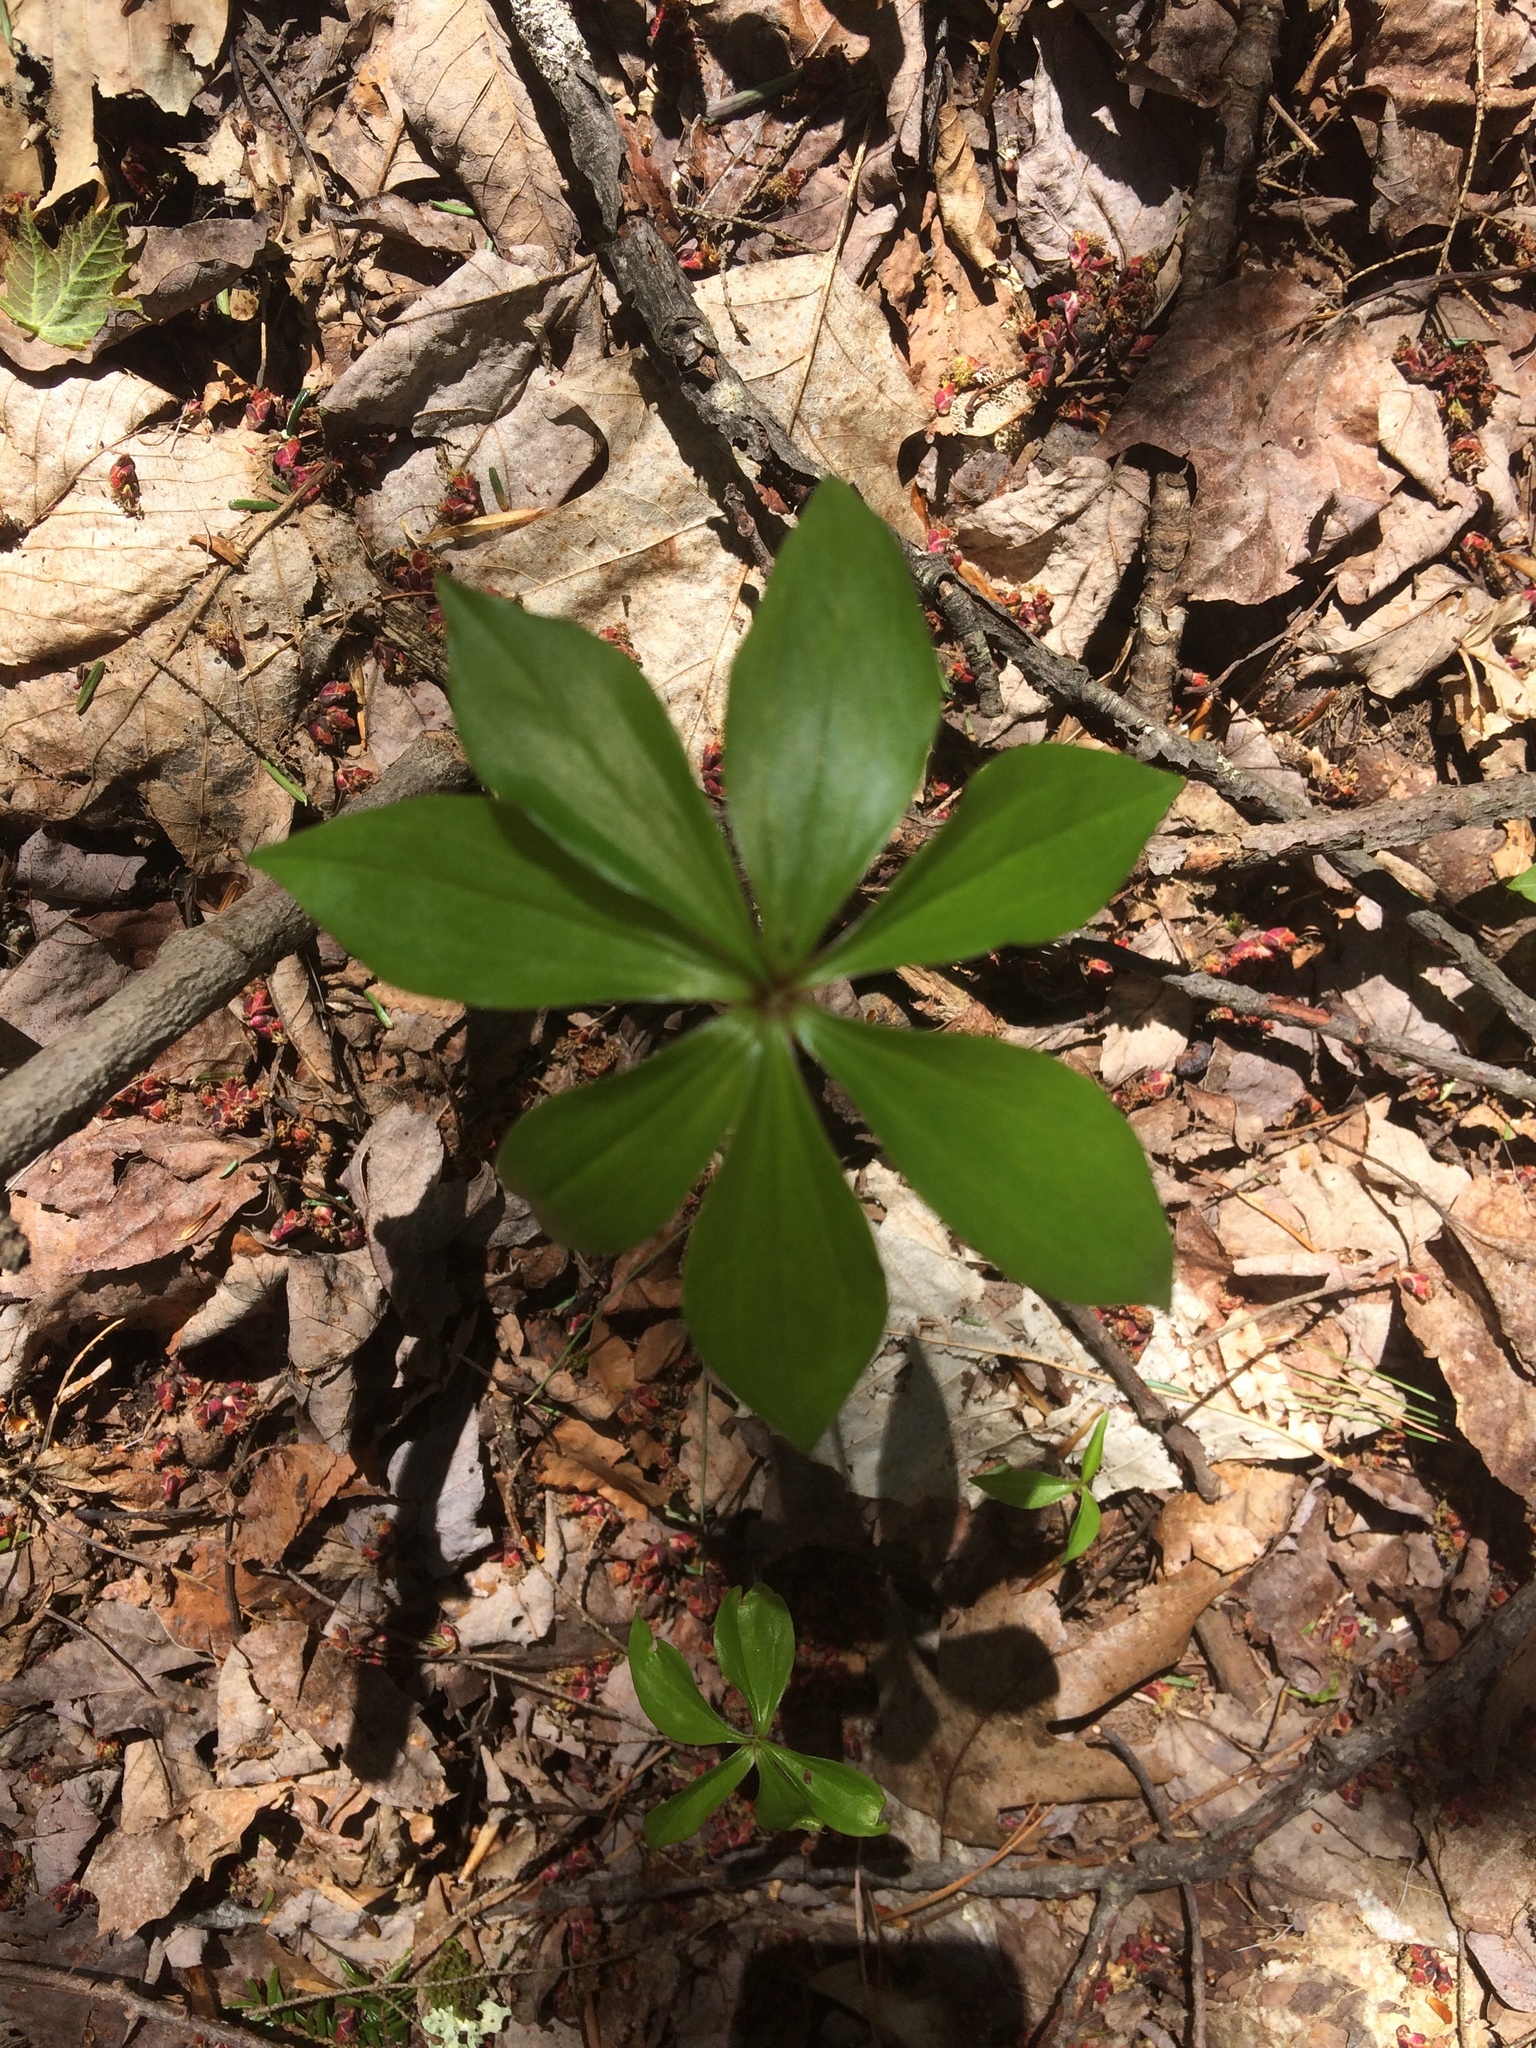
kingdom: Plantae
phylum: Tracheophyta
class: Liliopsida
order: Liliales
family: Liliaceae
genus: Medeola
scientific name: Medeola virginiana
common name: Indian cucumber-root
